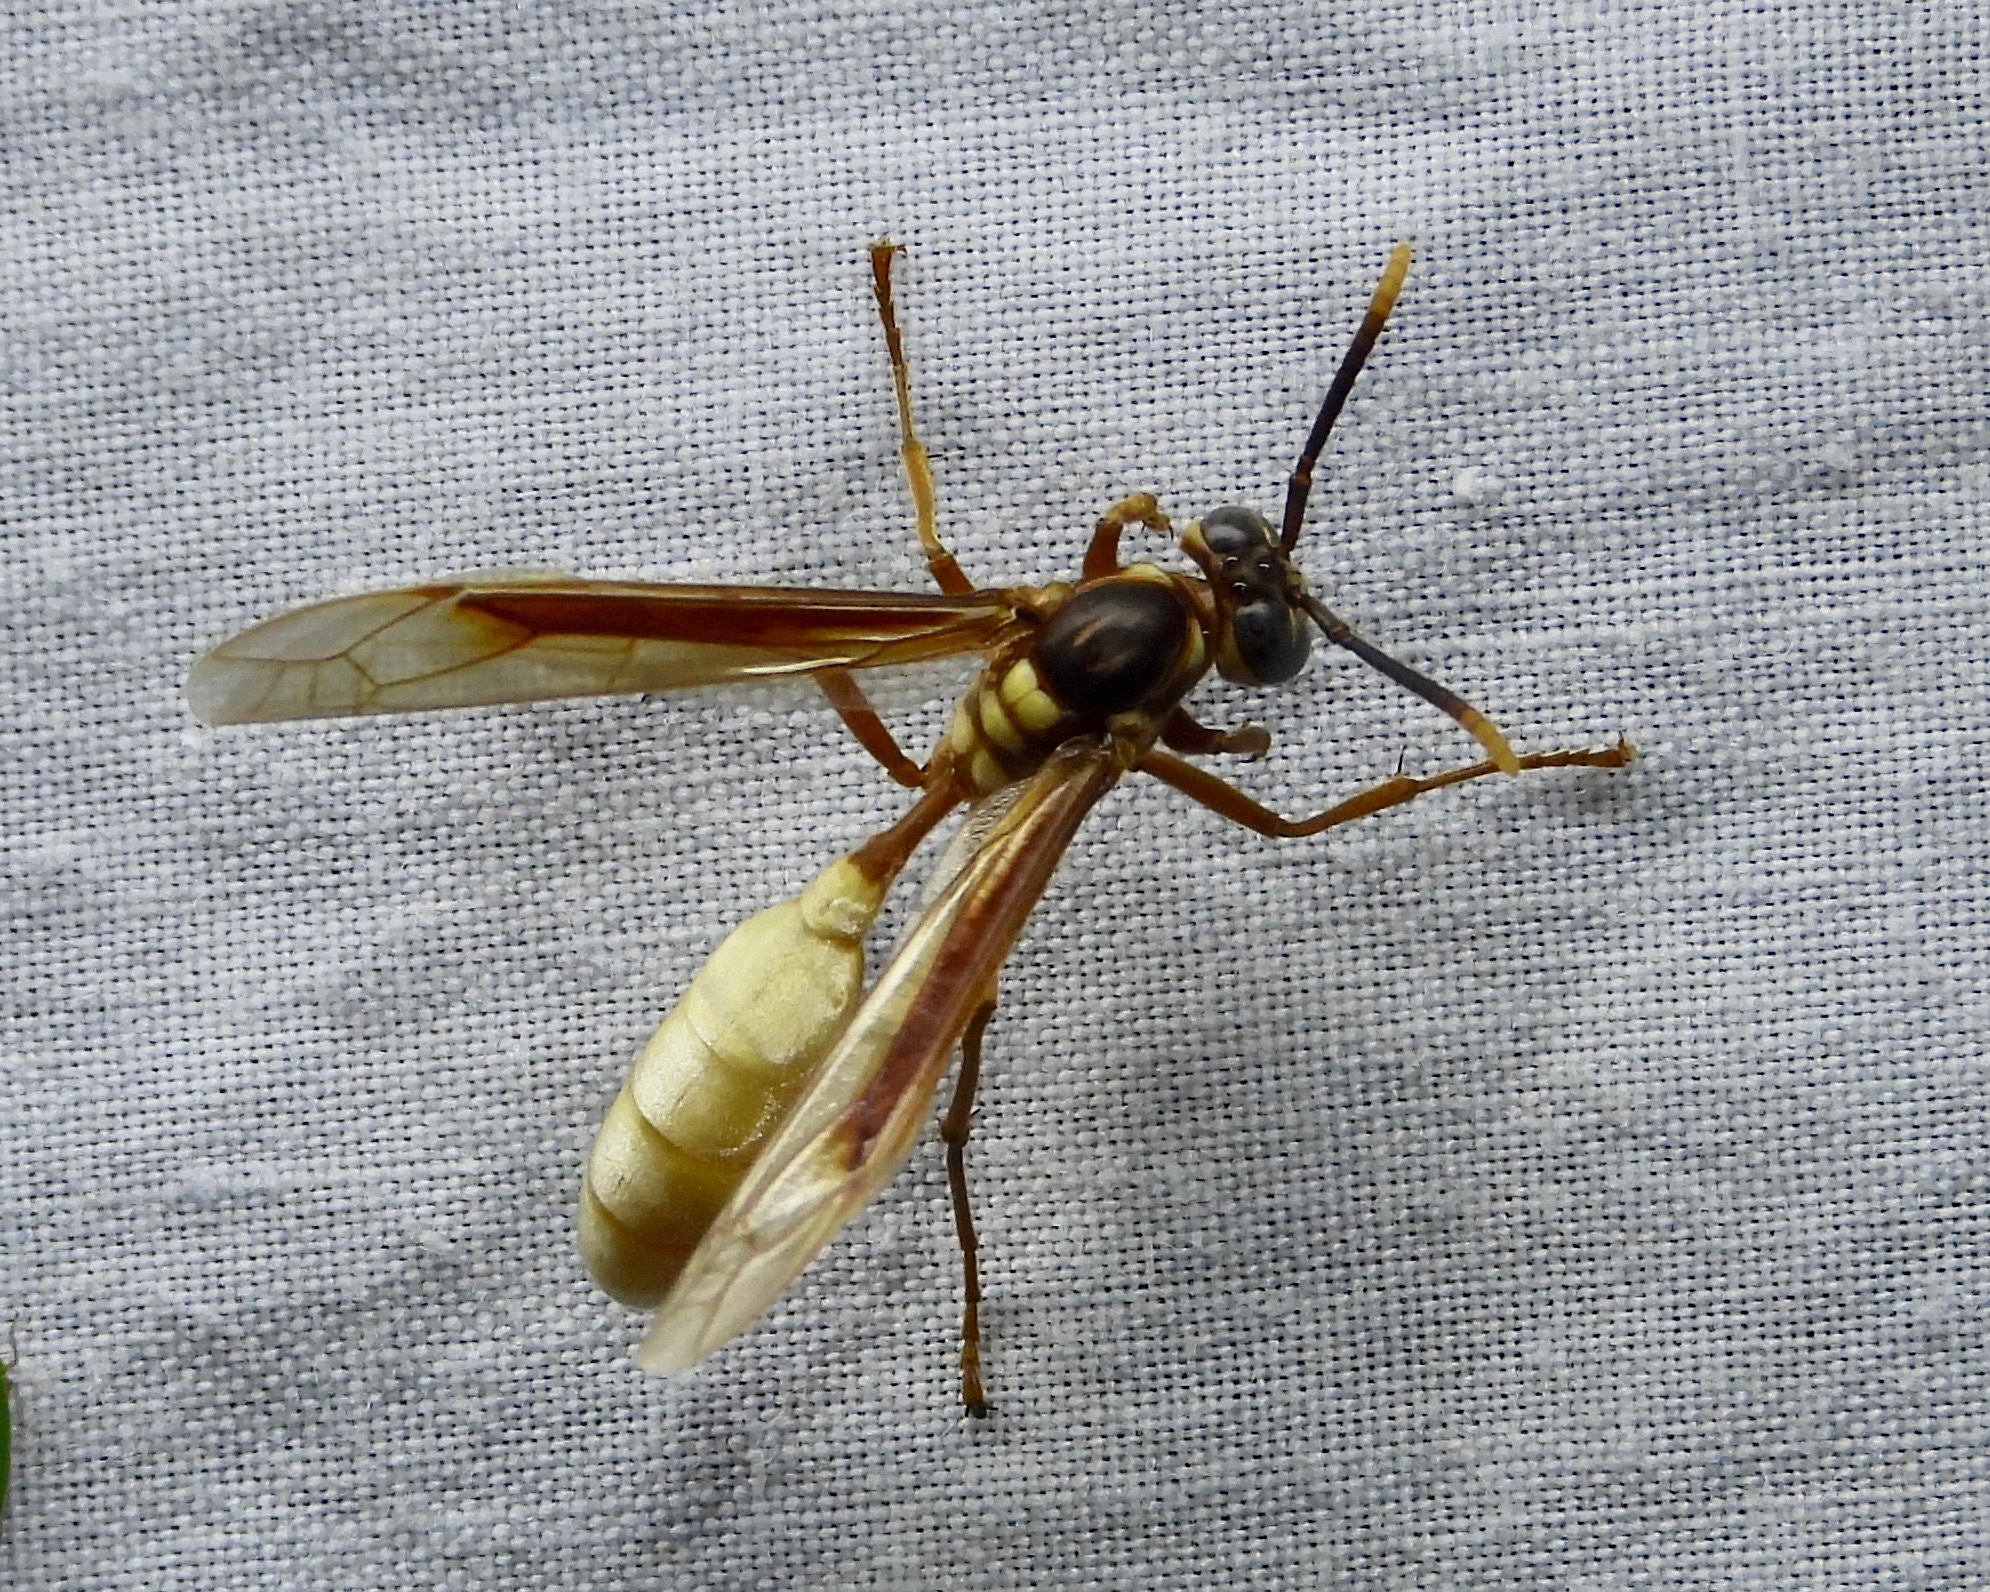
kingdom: Animalia
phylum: Arthropoda
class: Insecta
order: Hymenoptera
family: Vespidae
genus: Apoica
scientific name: Apoica pallens
